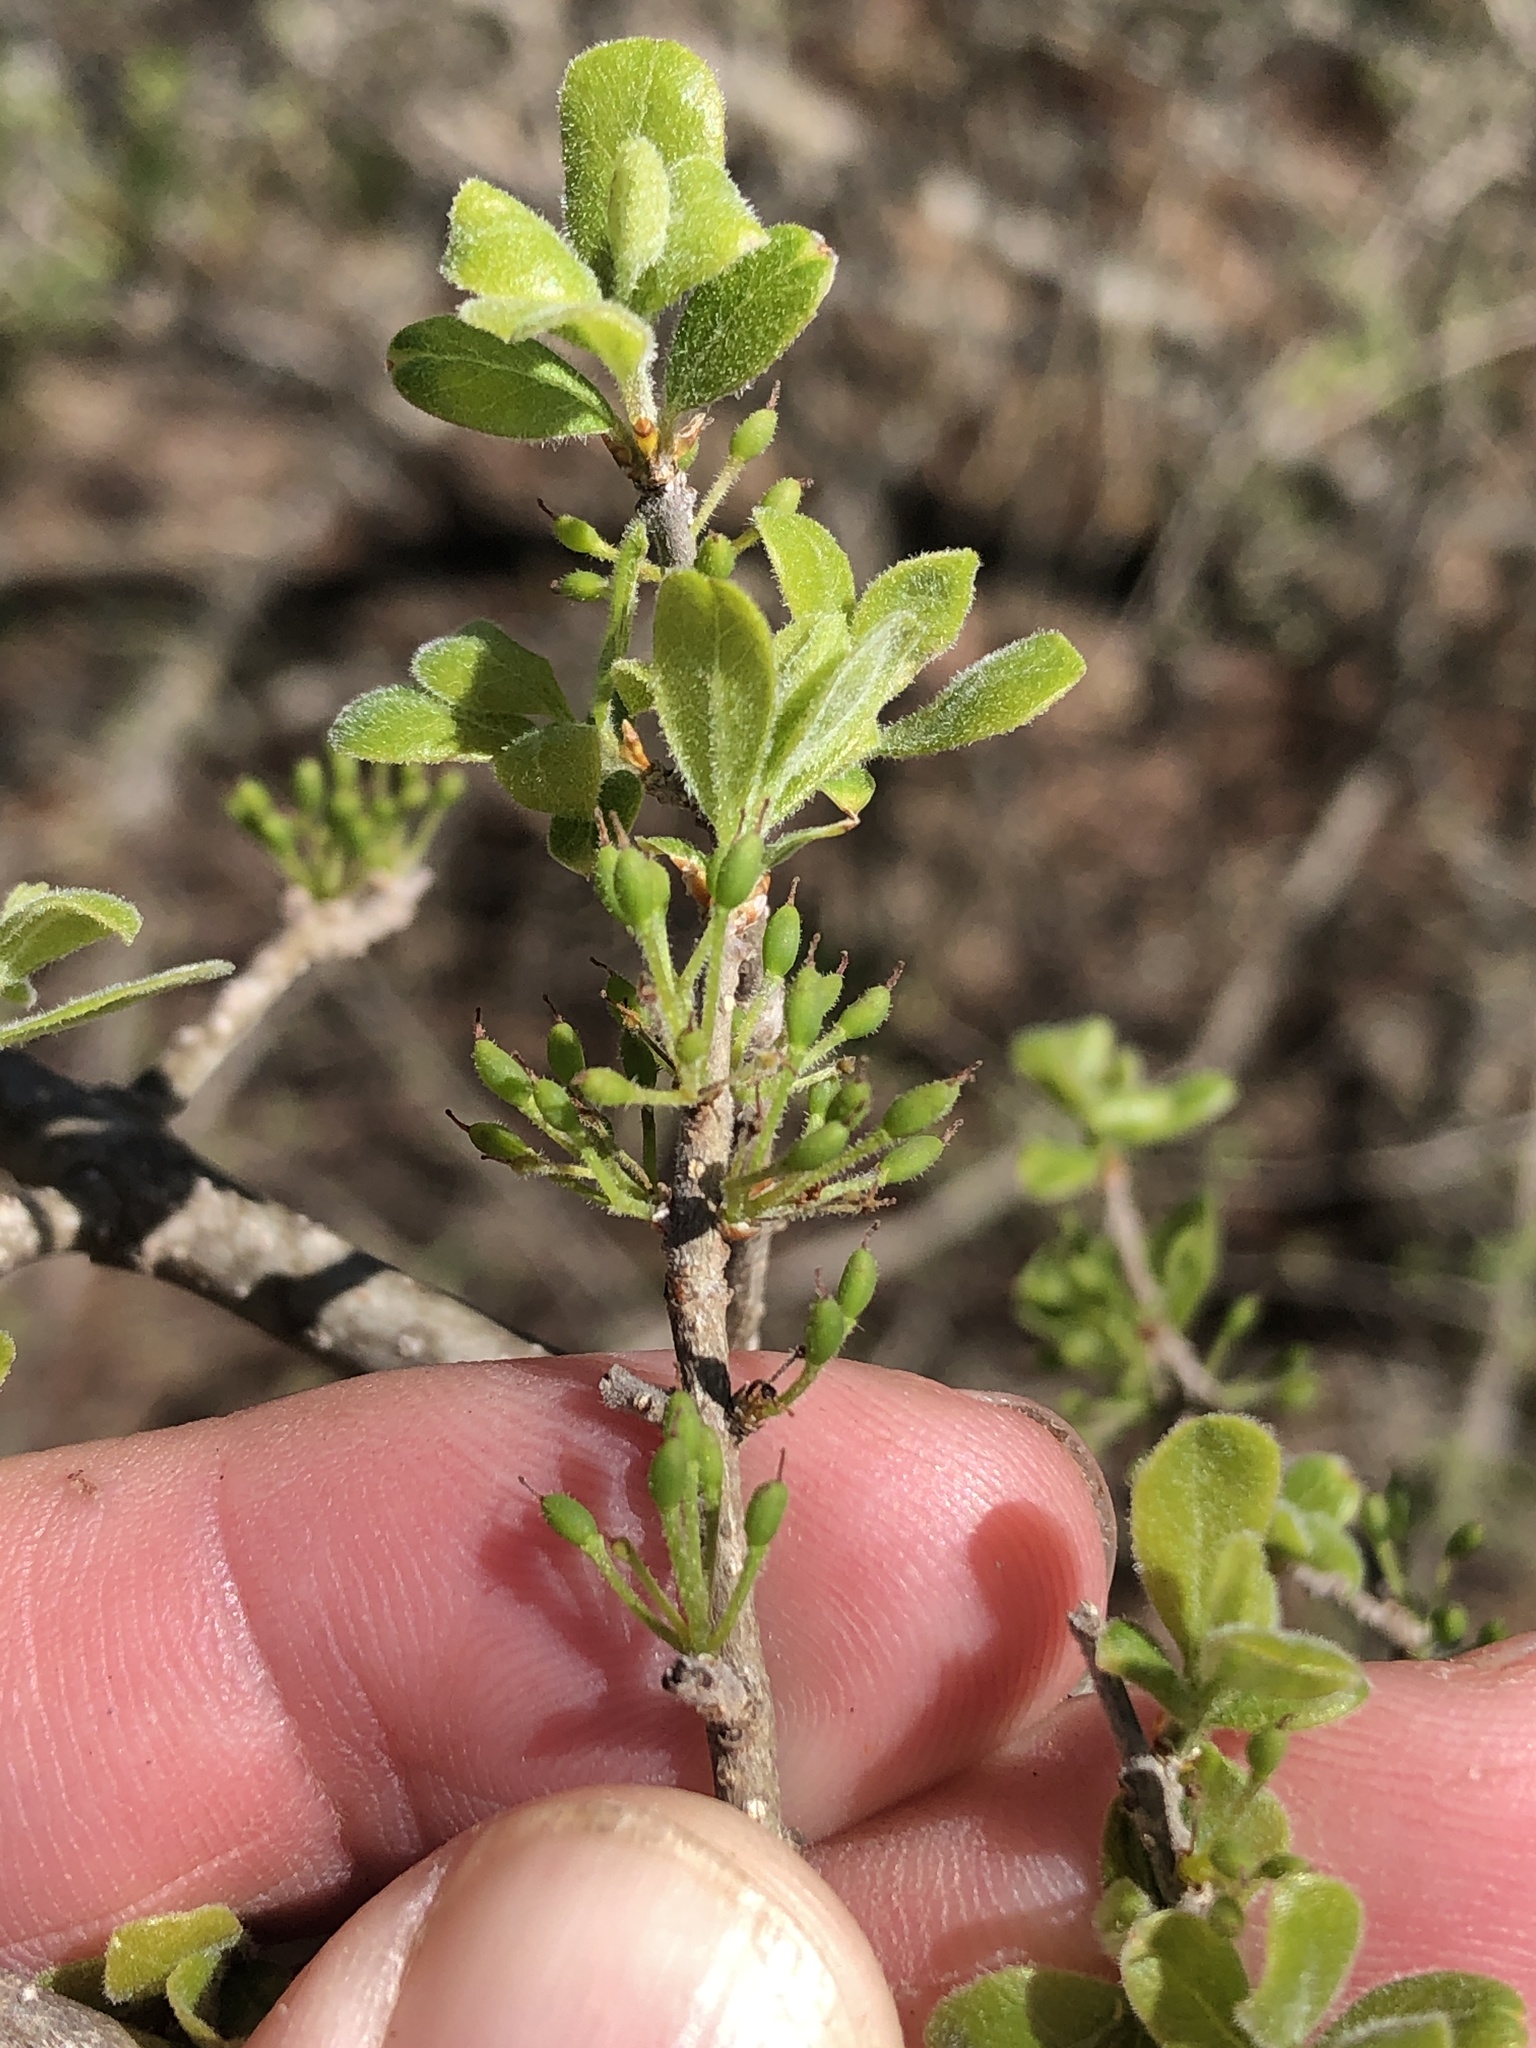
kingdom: Plantae
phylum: Tracheophyta
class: Magnoliopsida
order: Lamiales
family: Oleaceae
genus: Forestiera
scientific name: Forestiera pubescens
